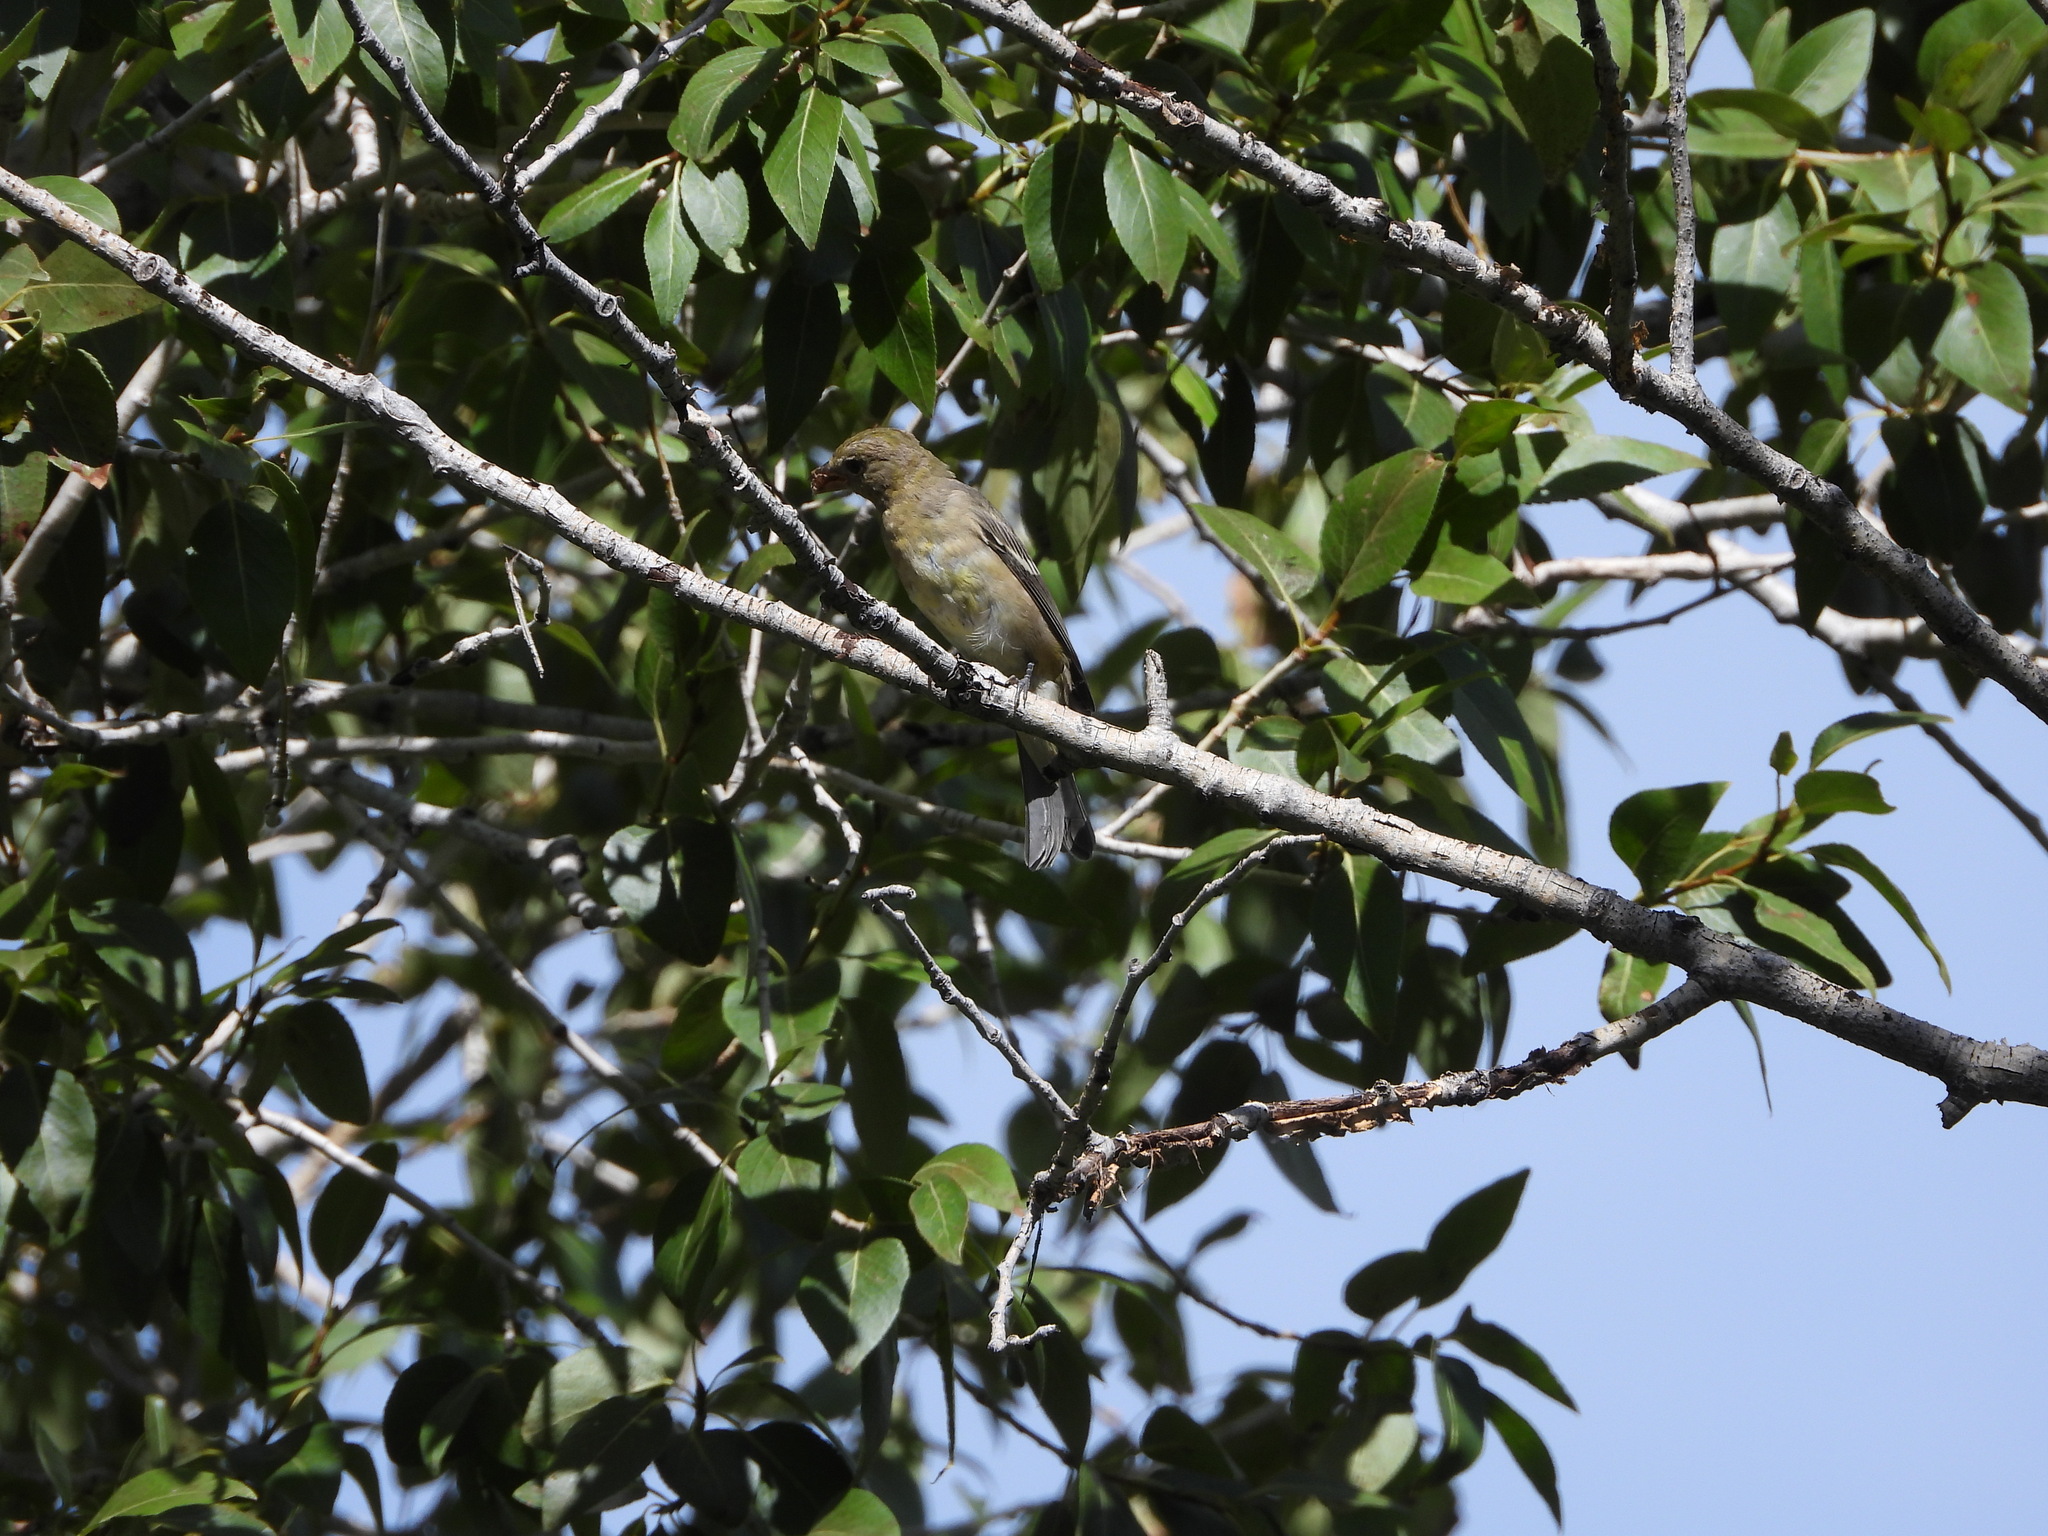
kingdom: Animalia
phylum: Chordata
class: Aves
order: Passeriformes
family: Fringillidae
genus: Spinus
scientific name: Spinus tristis
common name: American goldfinch
